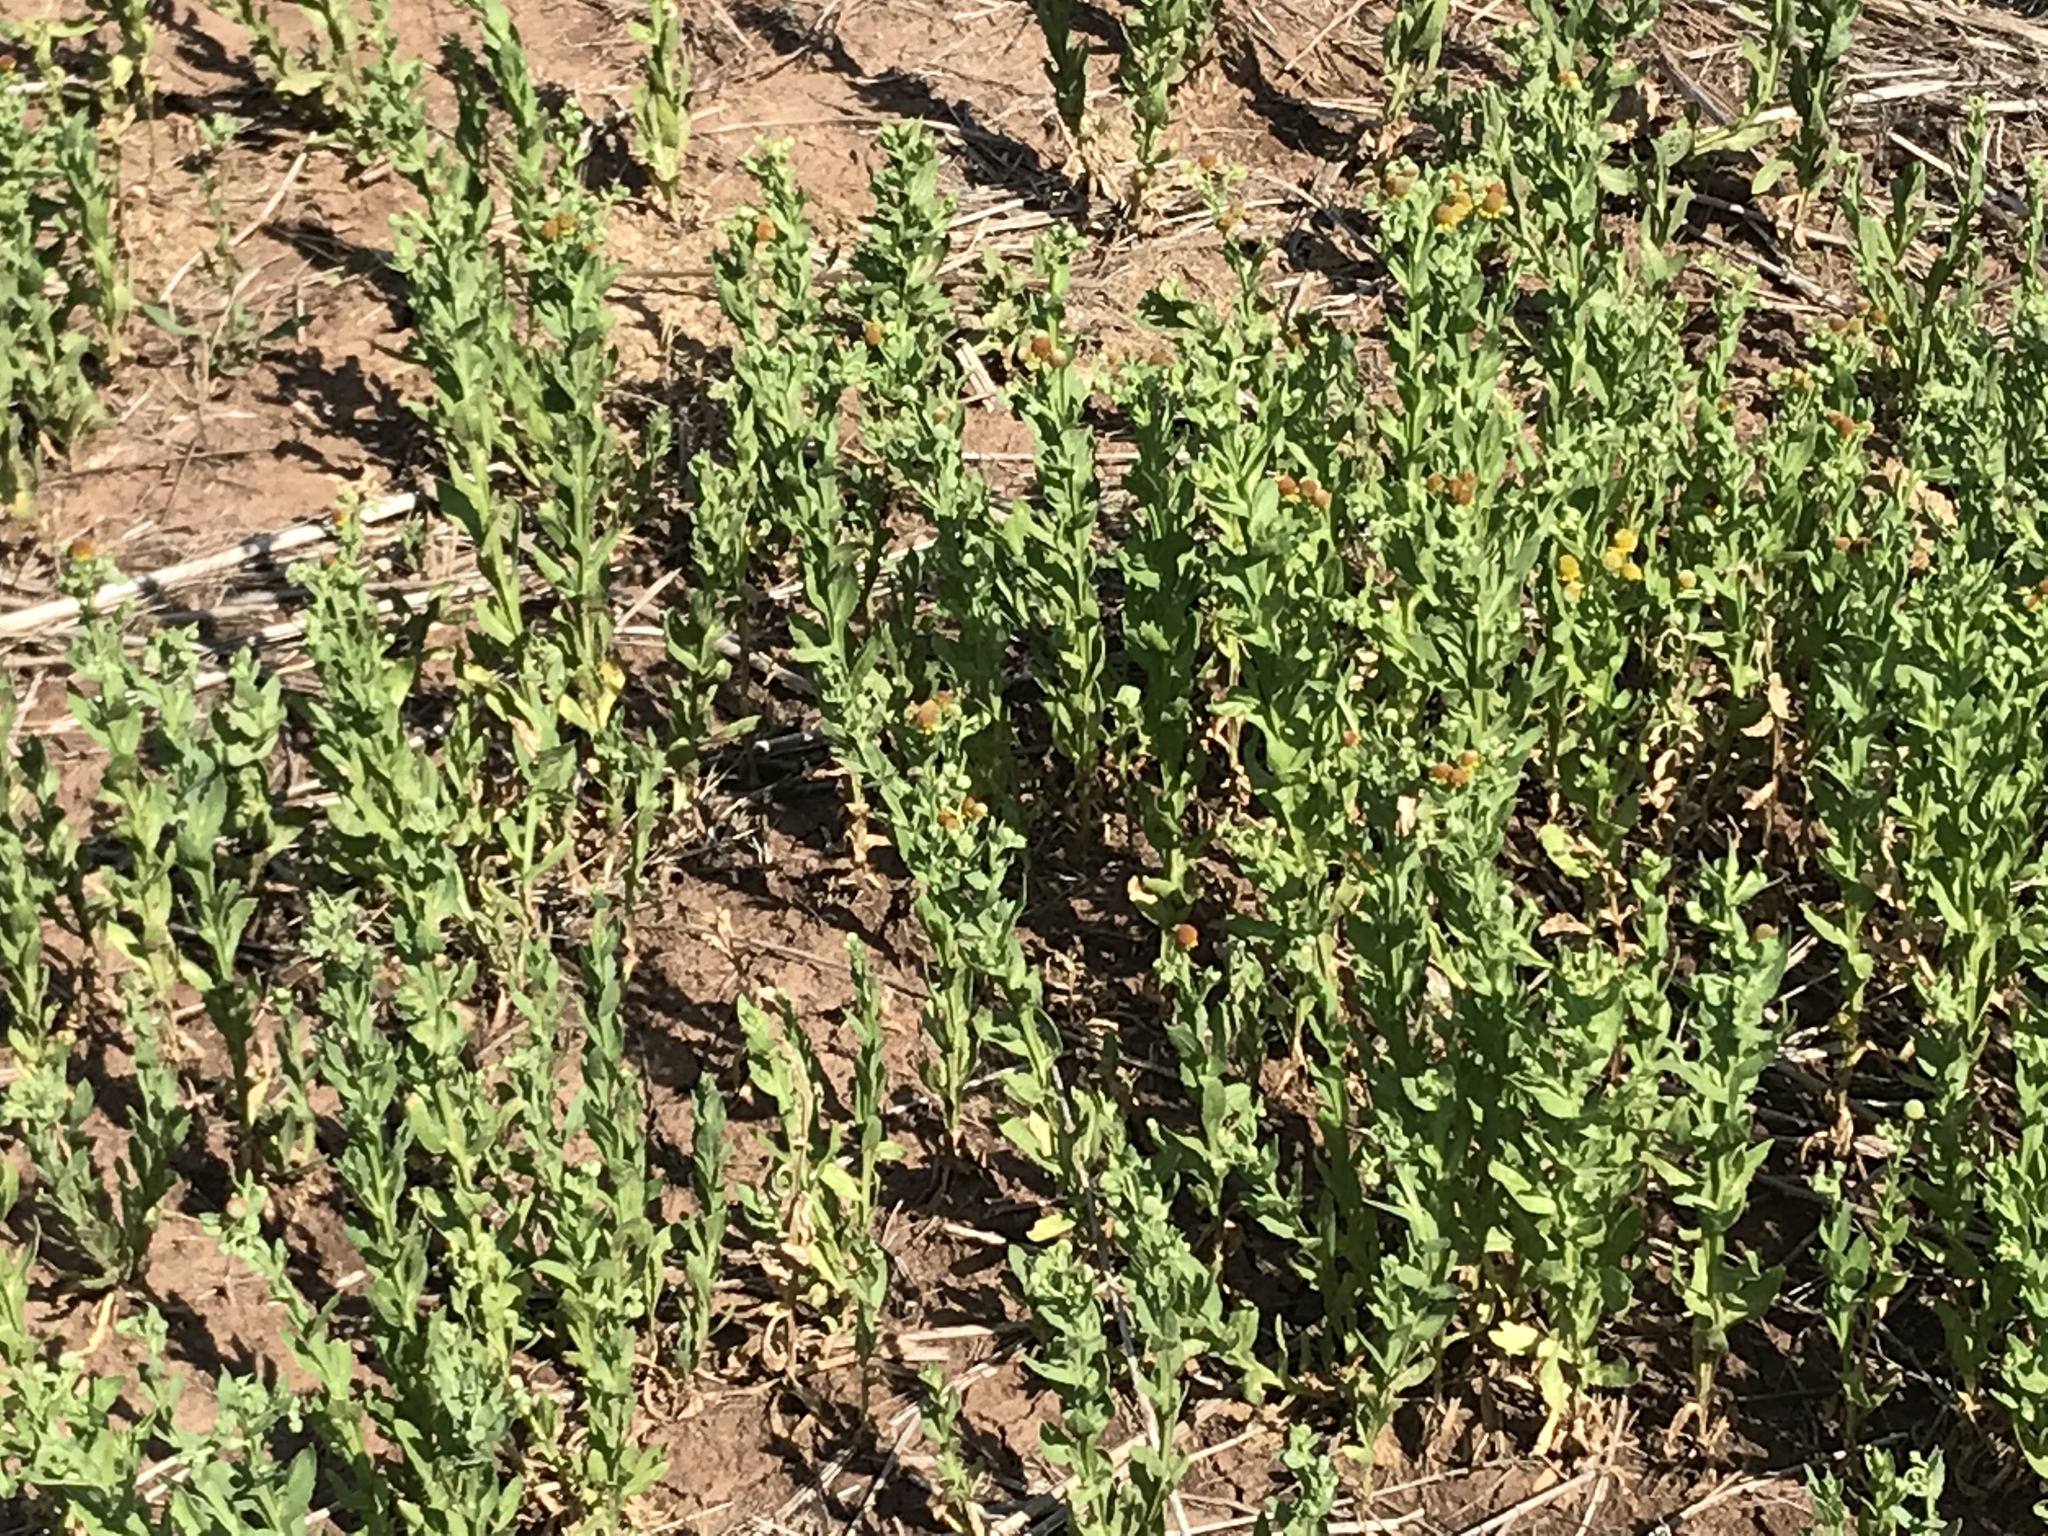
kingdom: Plantae
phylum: Tracheophyta
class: Magnoliopsida
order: Asterales
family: Asteraceae
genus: Helenium
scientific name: Helenium microcephalum
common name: Smallhead sneezeweed
